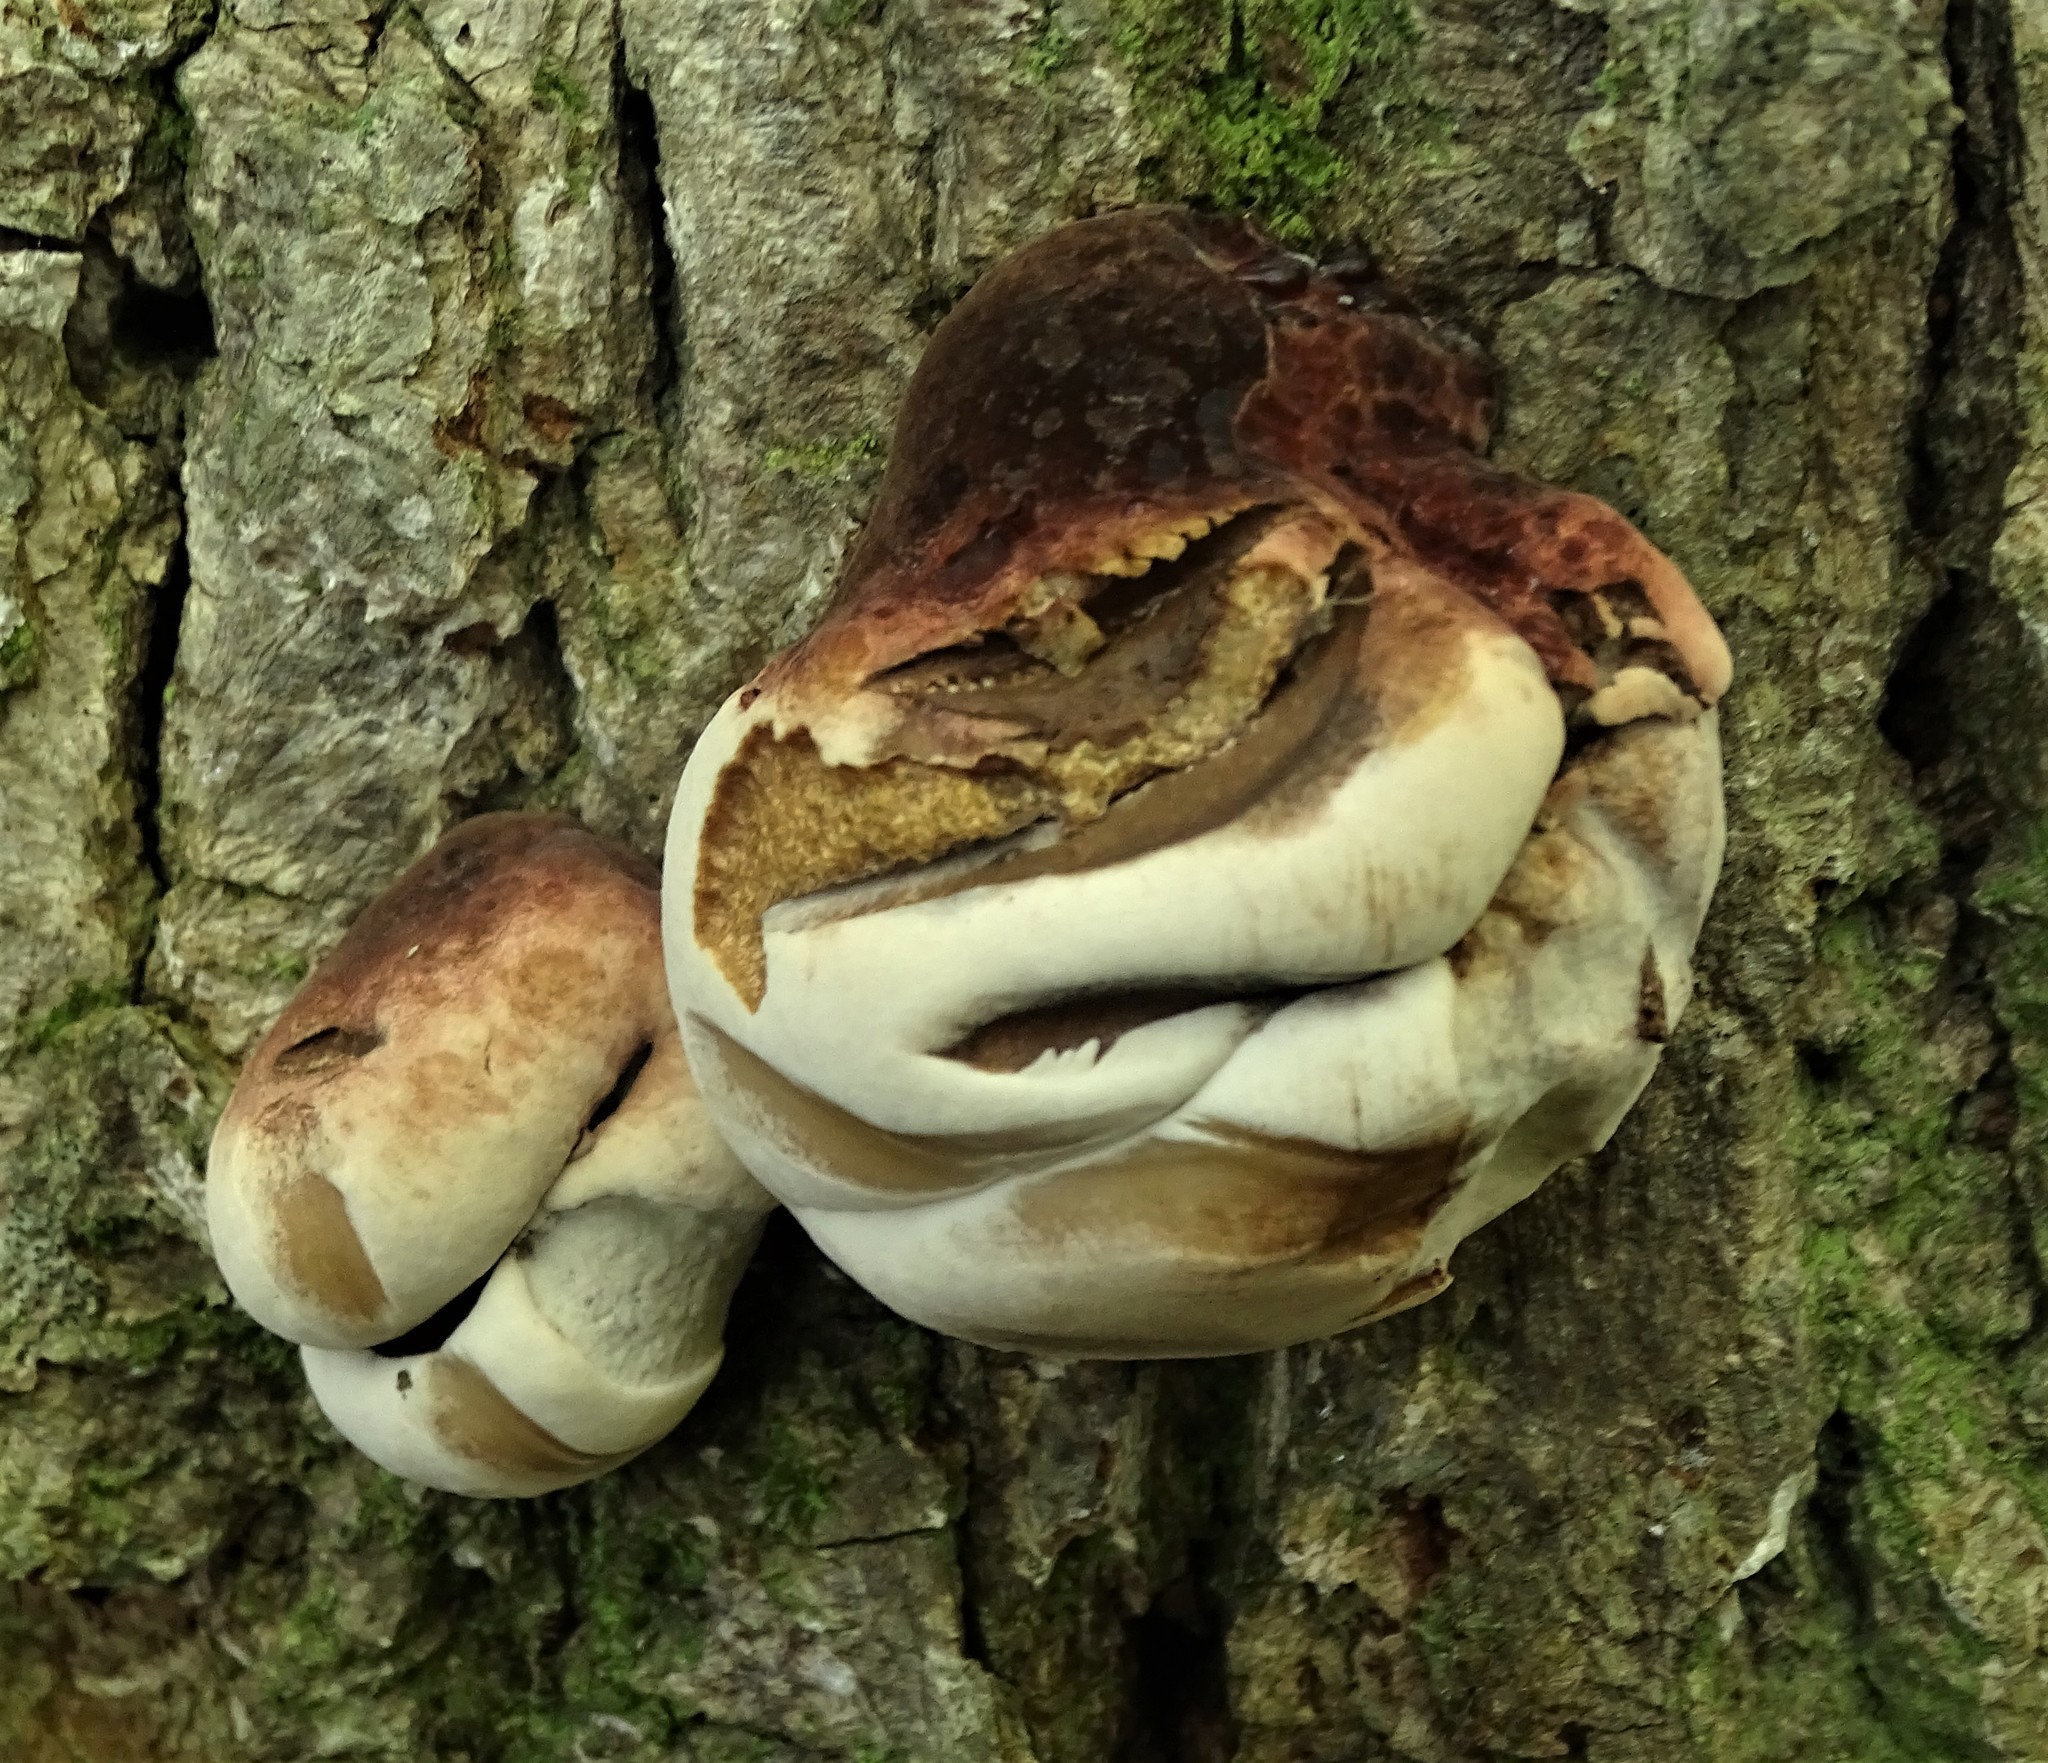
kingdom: Fungi
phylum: Basidiomycota
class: Agaricomycetes
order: Polyporales
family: Ischnodermataceae
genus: Ischnoderma
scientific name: Ischnoderma resinosum
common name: Resinous polypore
